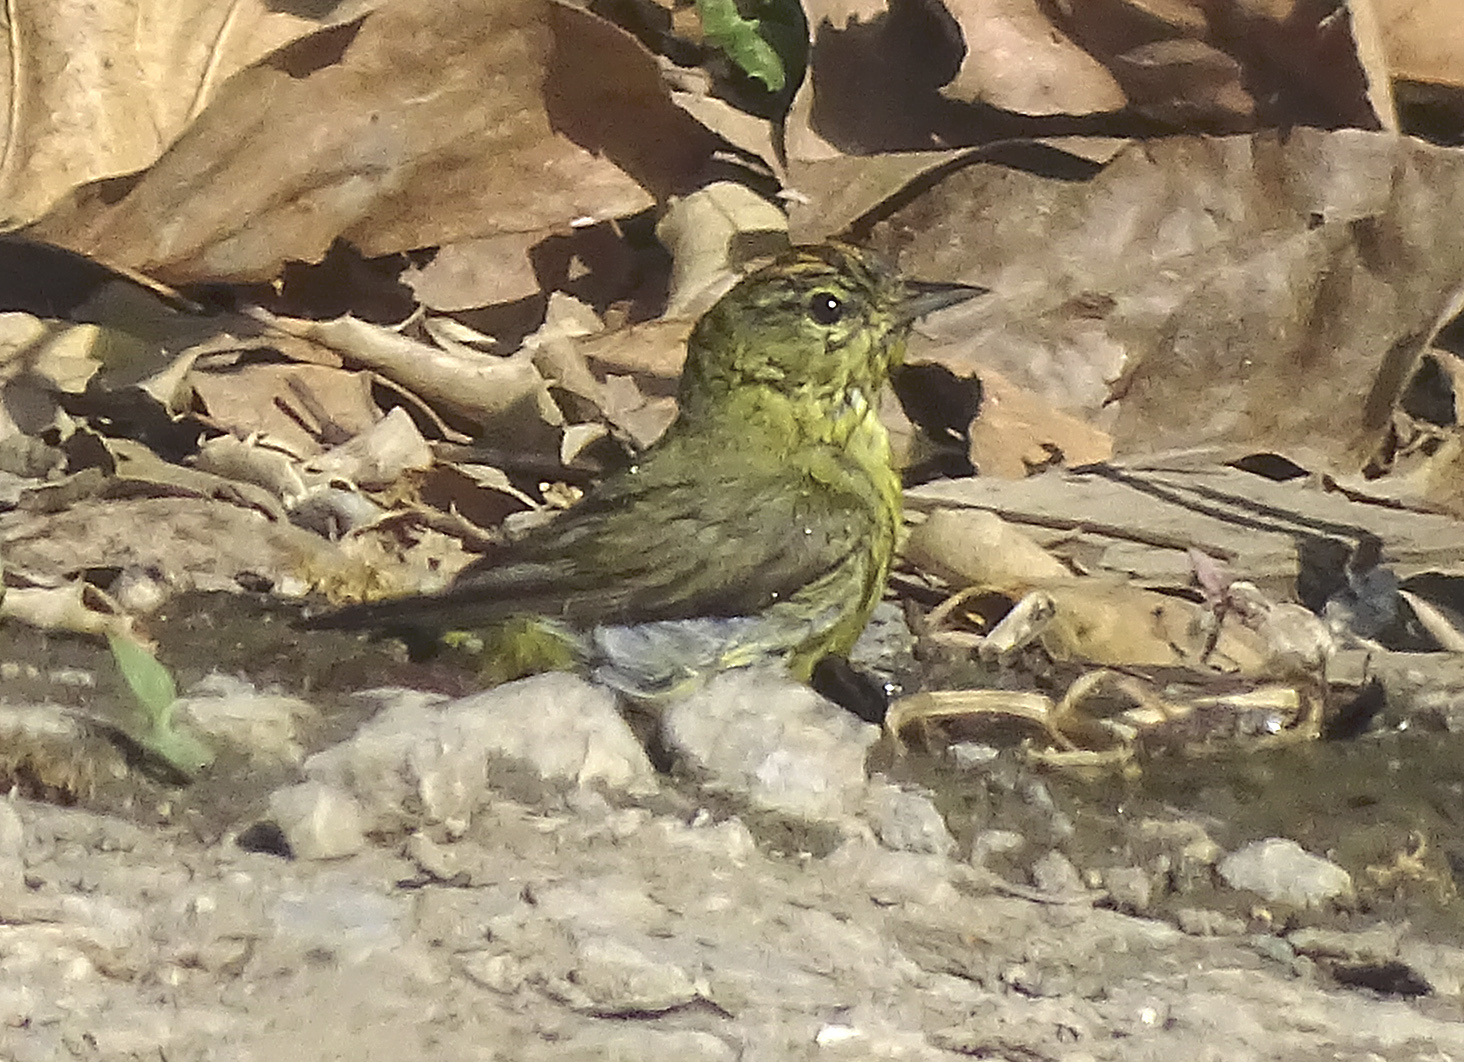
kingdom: Animalia
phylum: Chordata
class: Aves
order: Passeriformes
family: Parulidae
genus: Leiothlypis
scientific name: Leiothlypis celata
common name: Orange-crowned warbler
